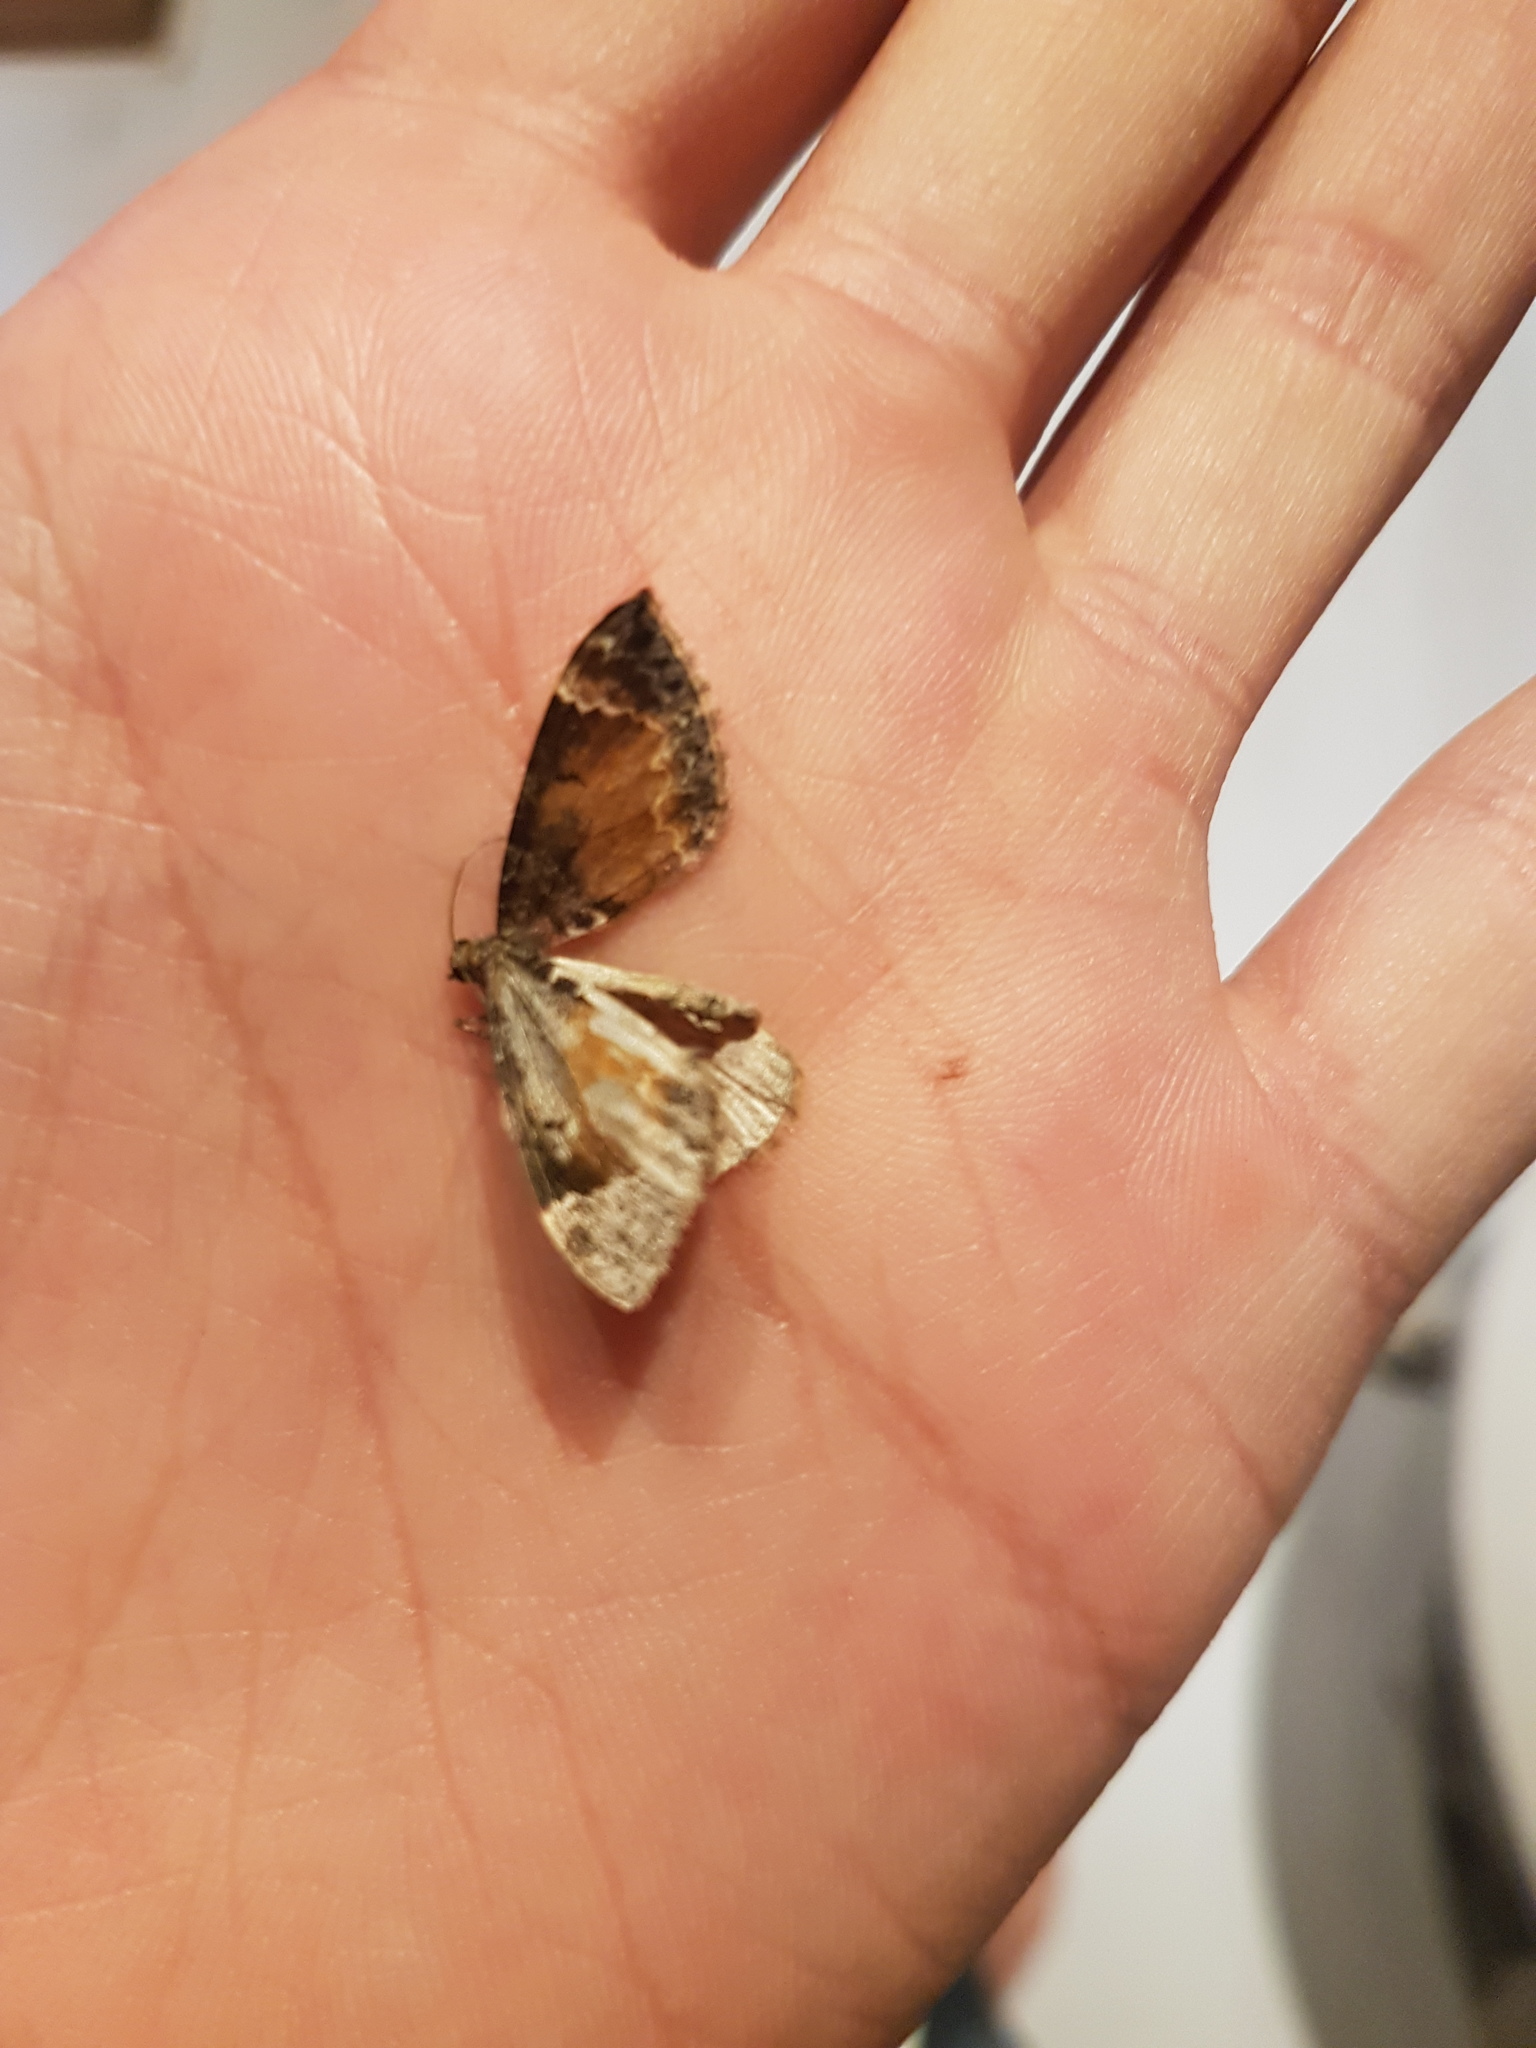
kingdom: Animalia
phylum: Arthropoda
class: Insecta
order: Lepidoptera
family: Geometridae
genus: Dysstroma
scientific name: Dysstroma truncata
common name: Common marbled carpet
